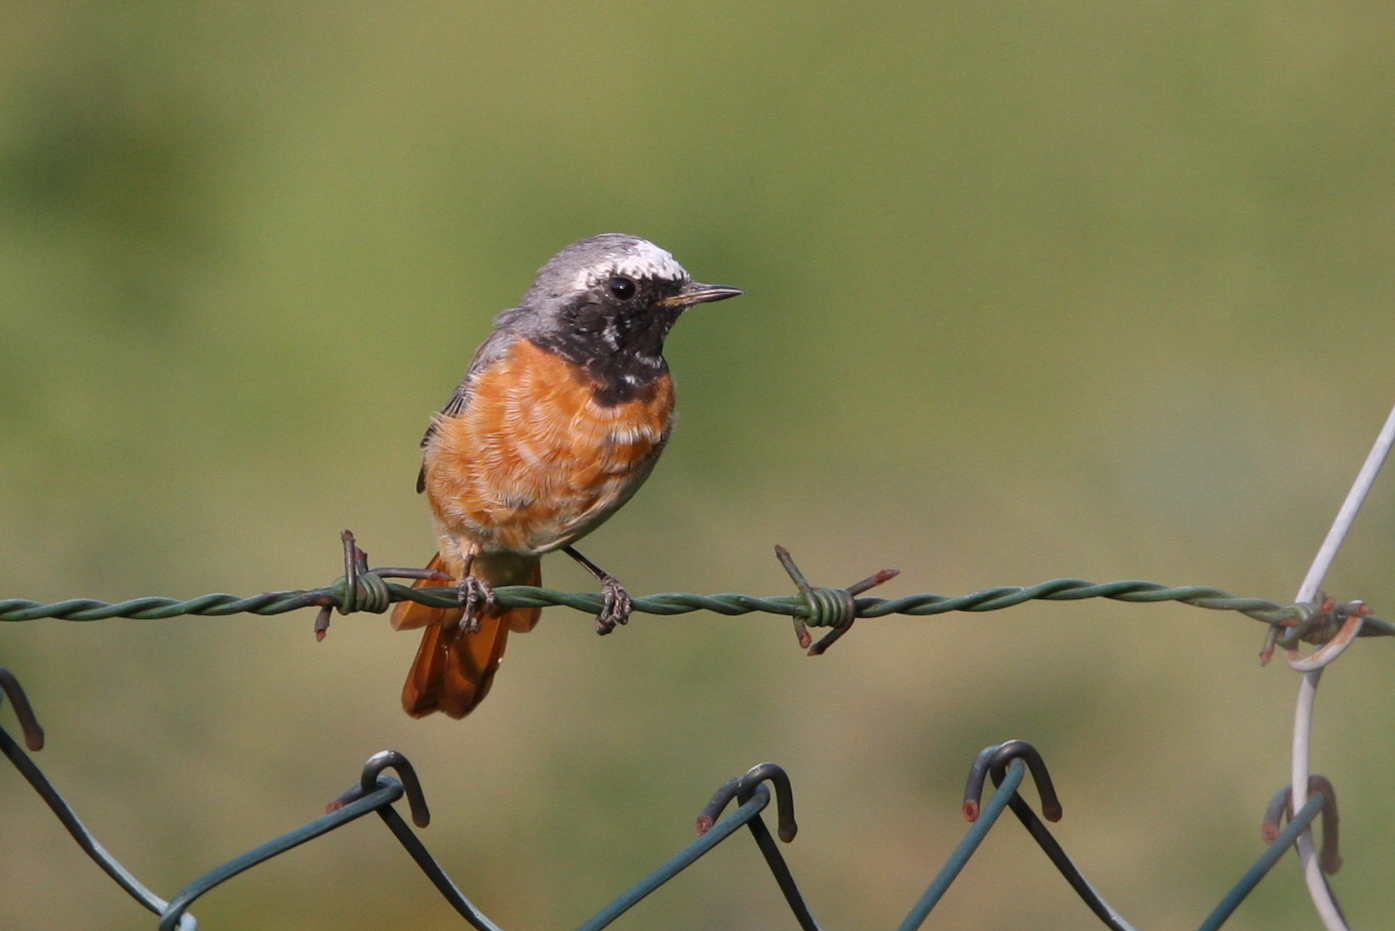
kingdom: Animalia
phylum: Chordata
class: Aves
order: Passeriformes
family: Muscicapidae
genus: Phoenicurus
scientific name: Phoenicurus phoenicurus
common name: Common redstart
